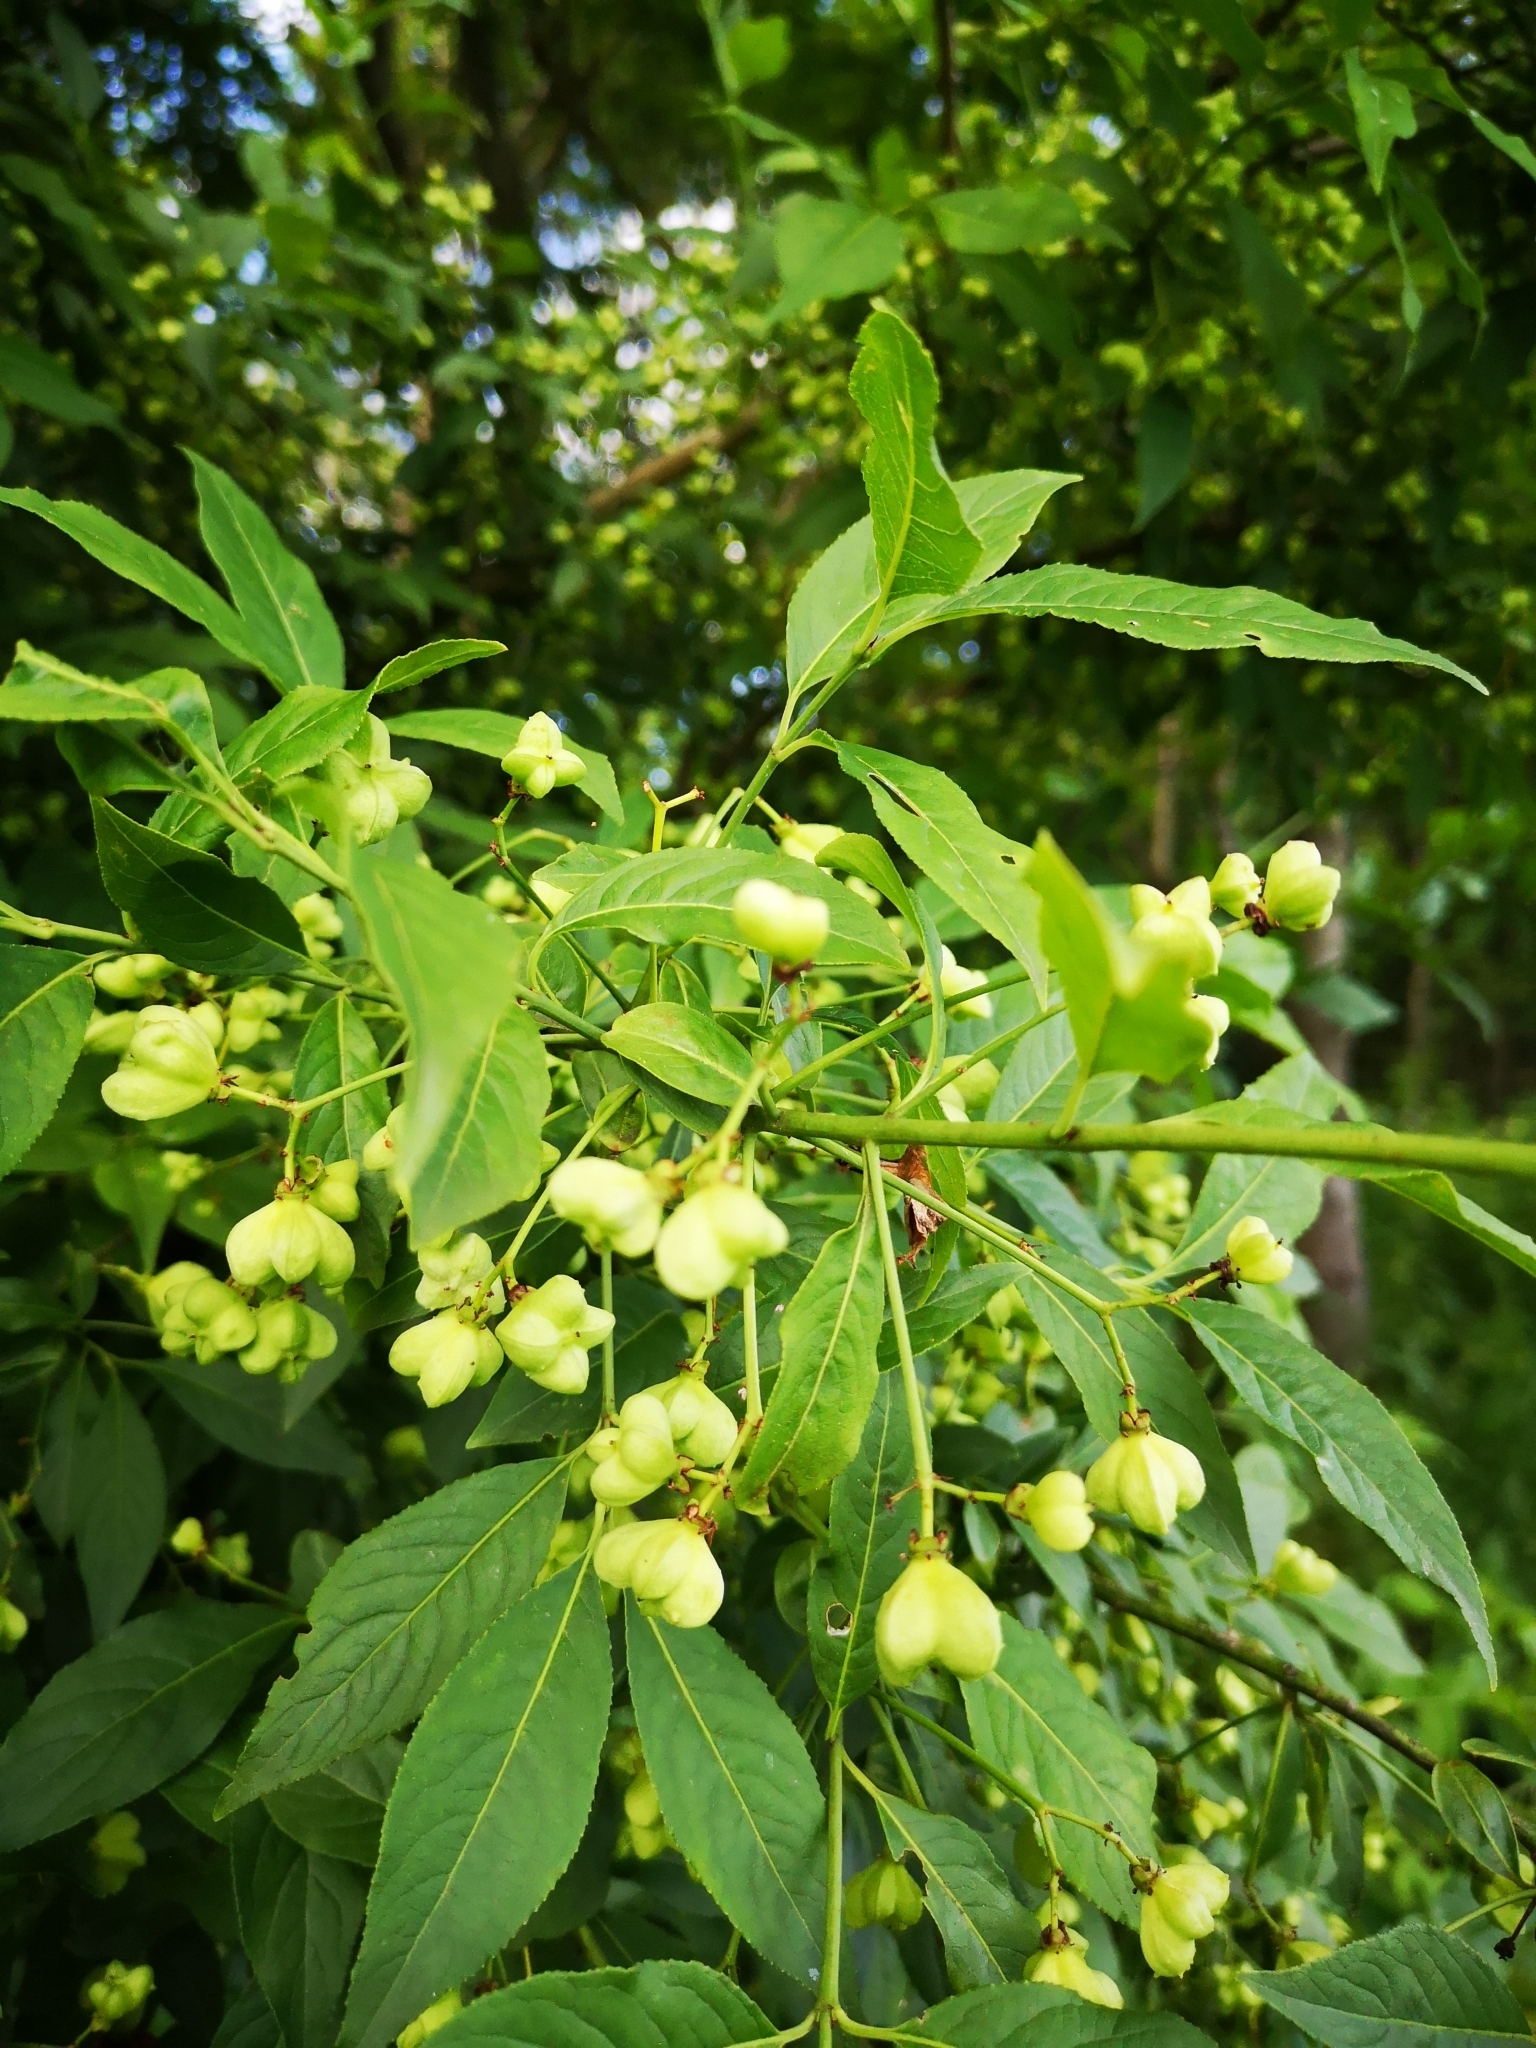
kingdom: Plantae
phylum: Tracheophyta
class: Magnoliopsida
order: Celastrales
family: Celastraceae
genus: Euonymus
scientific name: Euonymus europaeus
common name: Spindle
